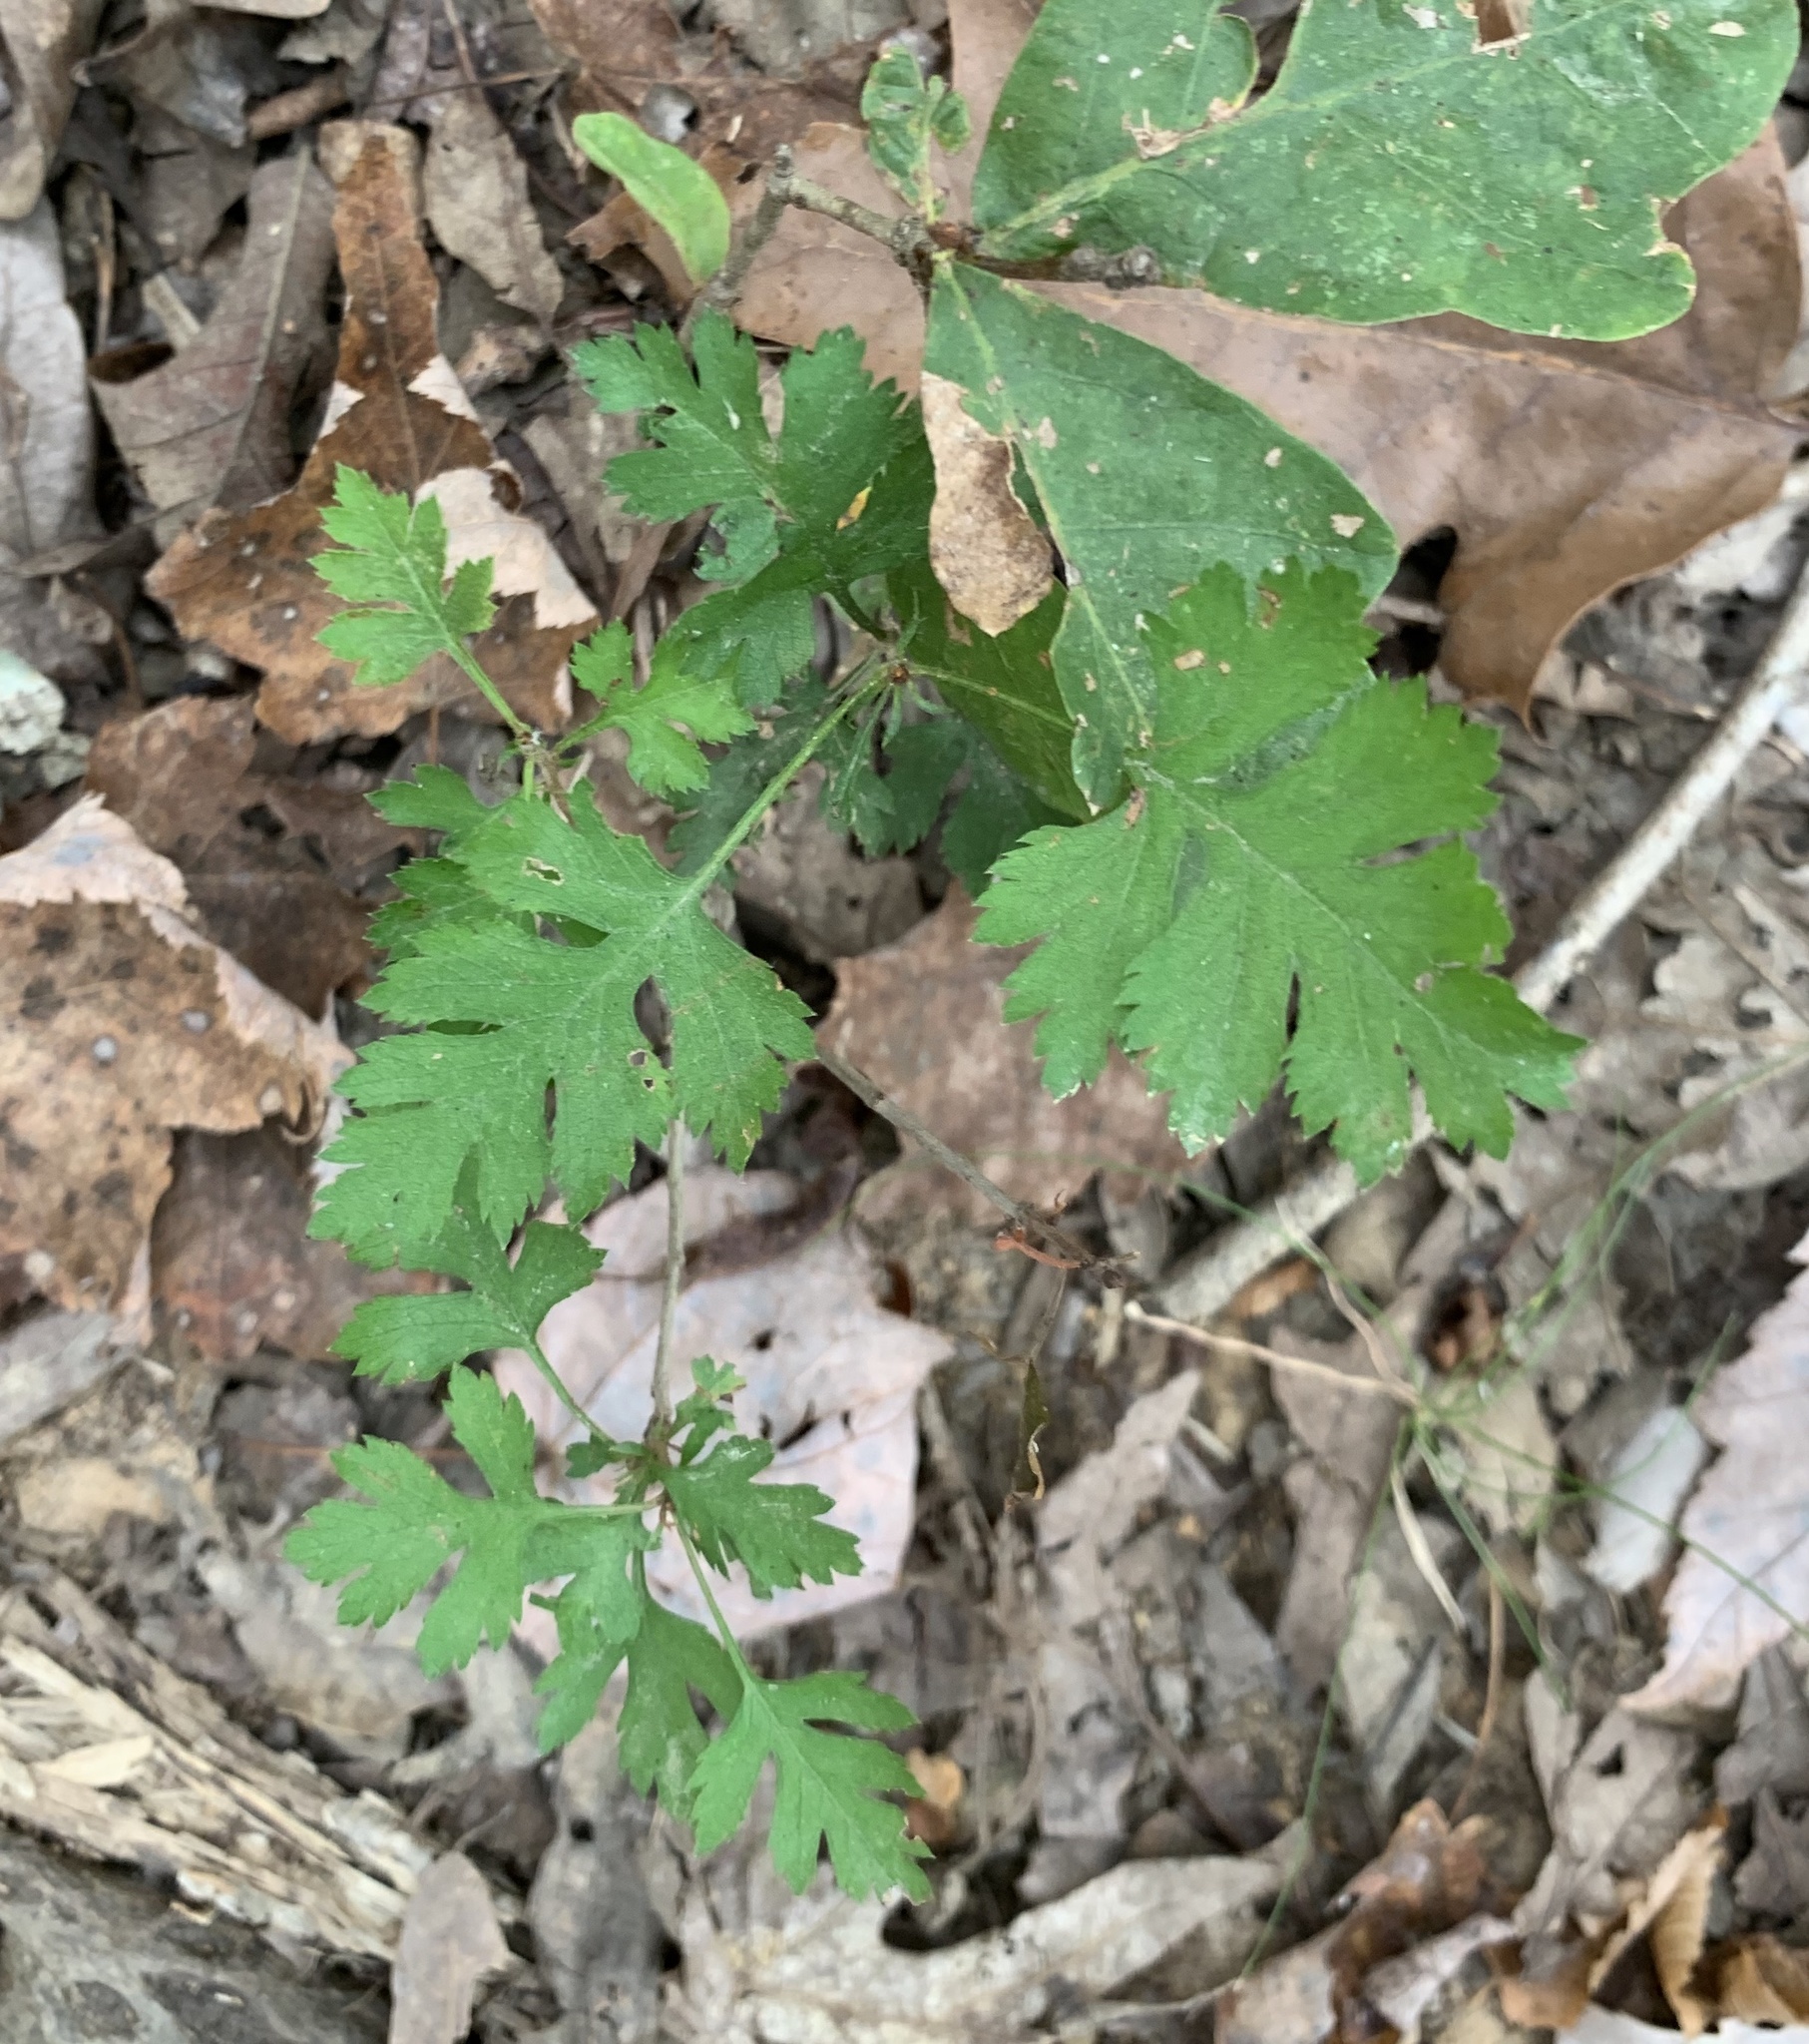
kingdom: Plantae
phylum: Tracheophyta
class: Magnoliopsida
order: Rosales
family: Rosaceae
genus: Crataegus
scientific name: Crataegus marshallii
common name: Parsley-hawthorn
